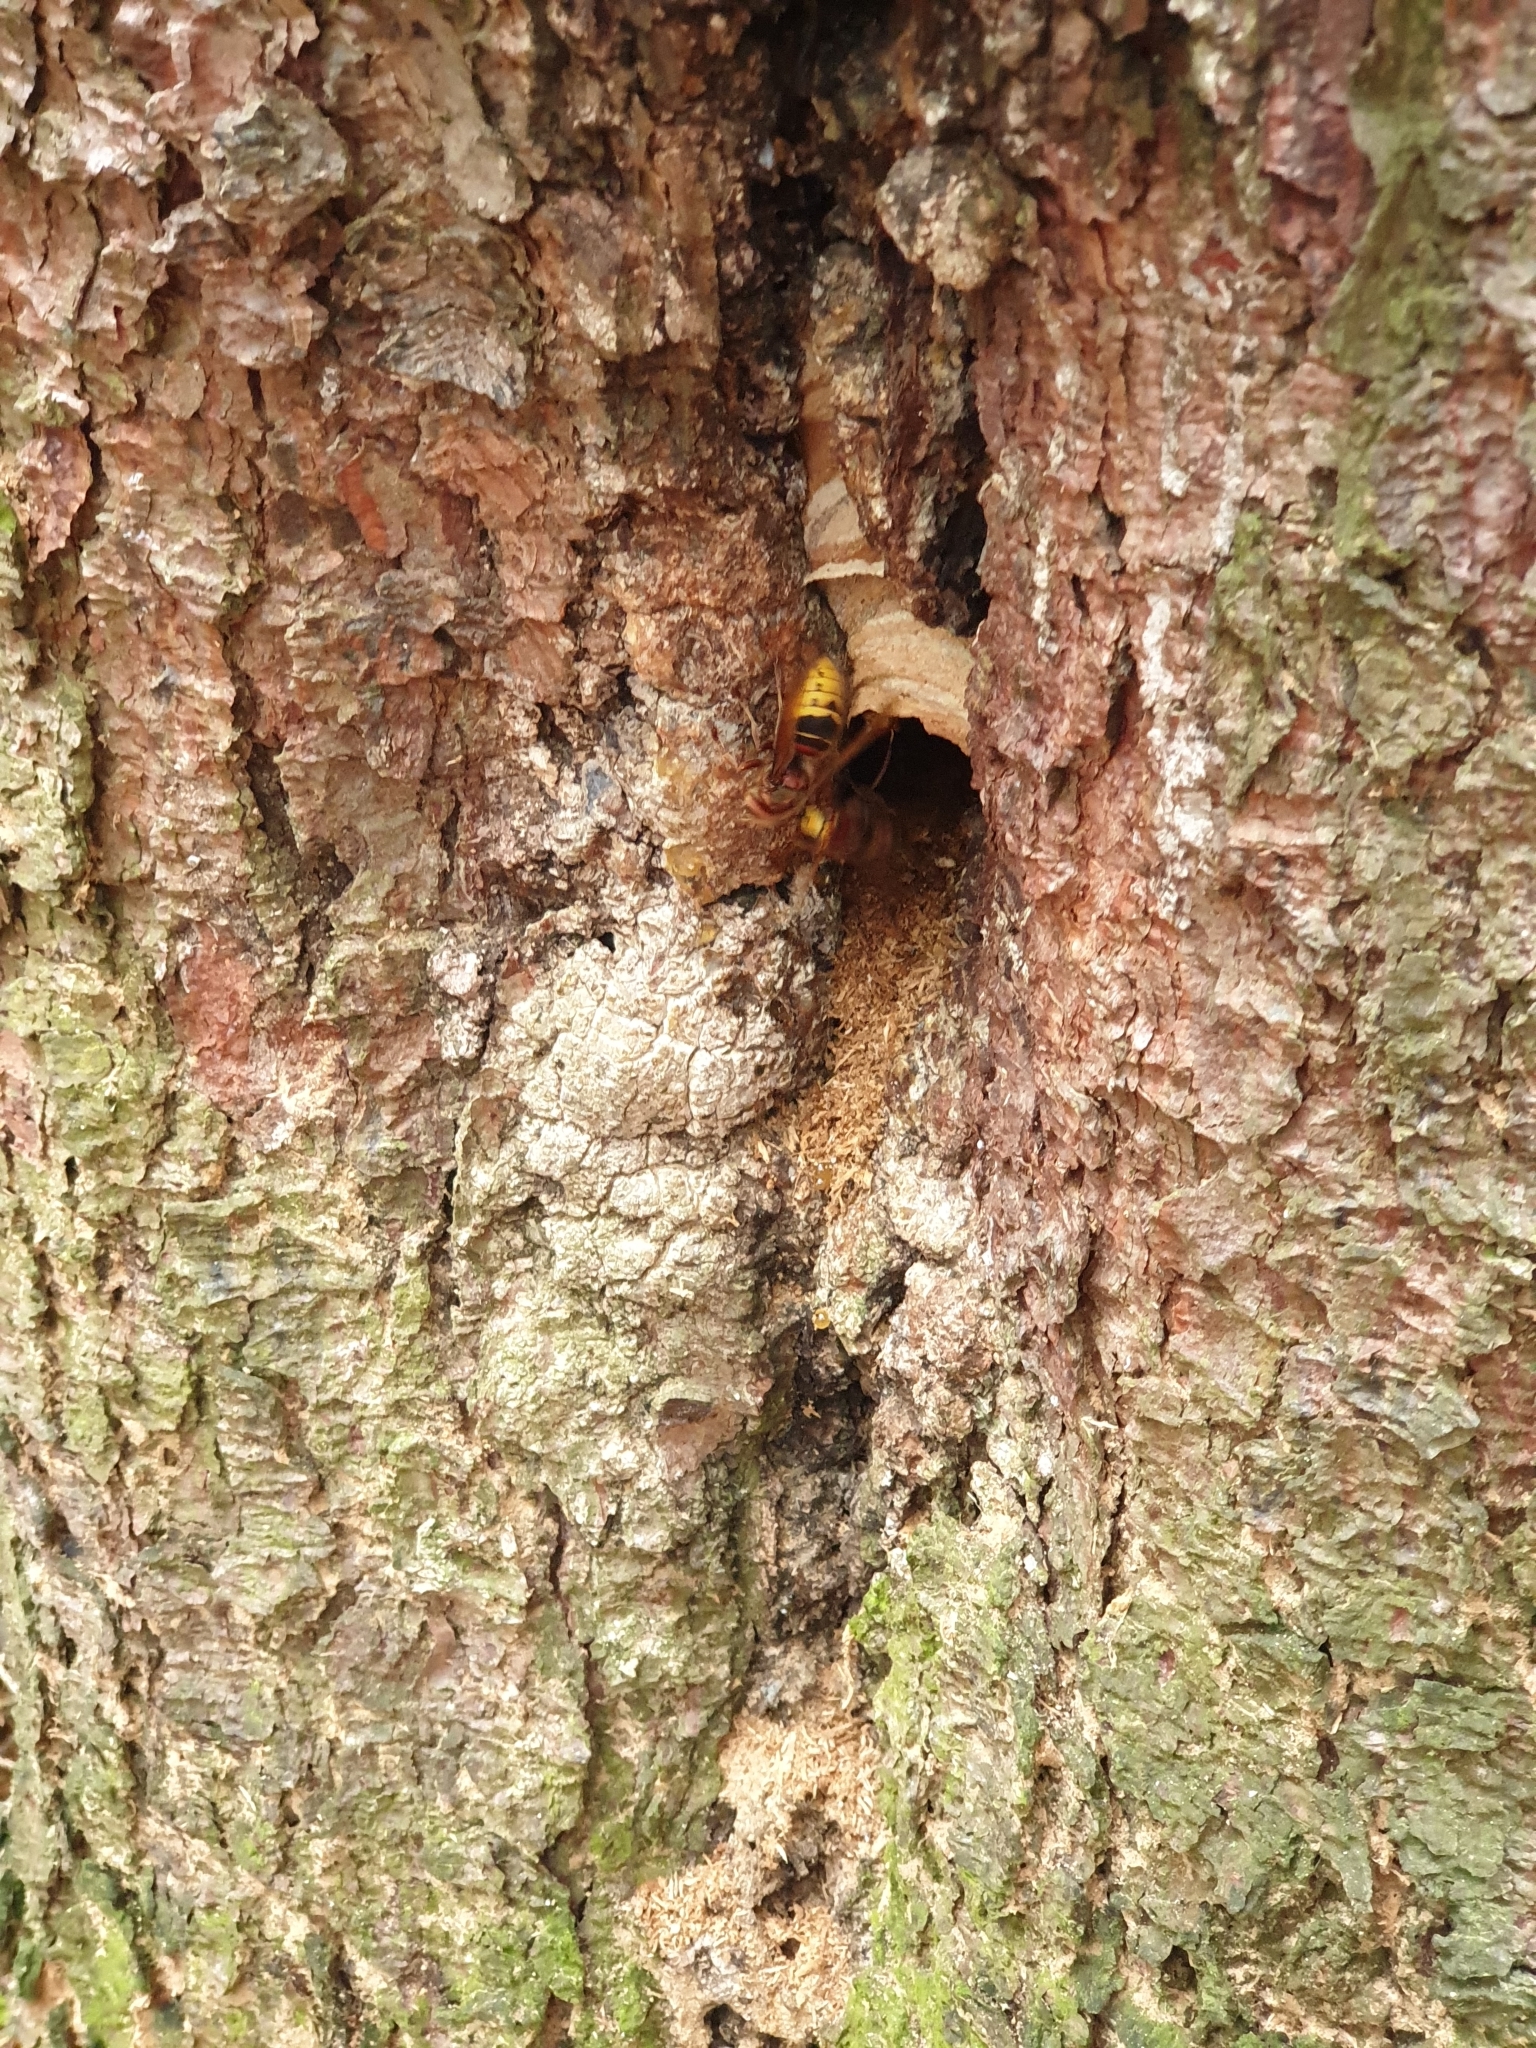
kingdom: Animalia
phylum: Arthropoda
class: Insecta
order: Hymenoptera
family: Vespidae
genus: Vespa
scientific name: Vespa crabro
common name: Hornet
